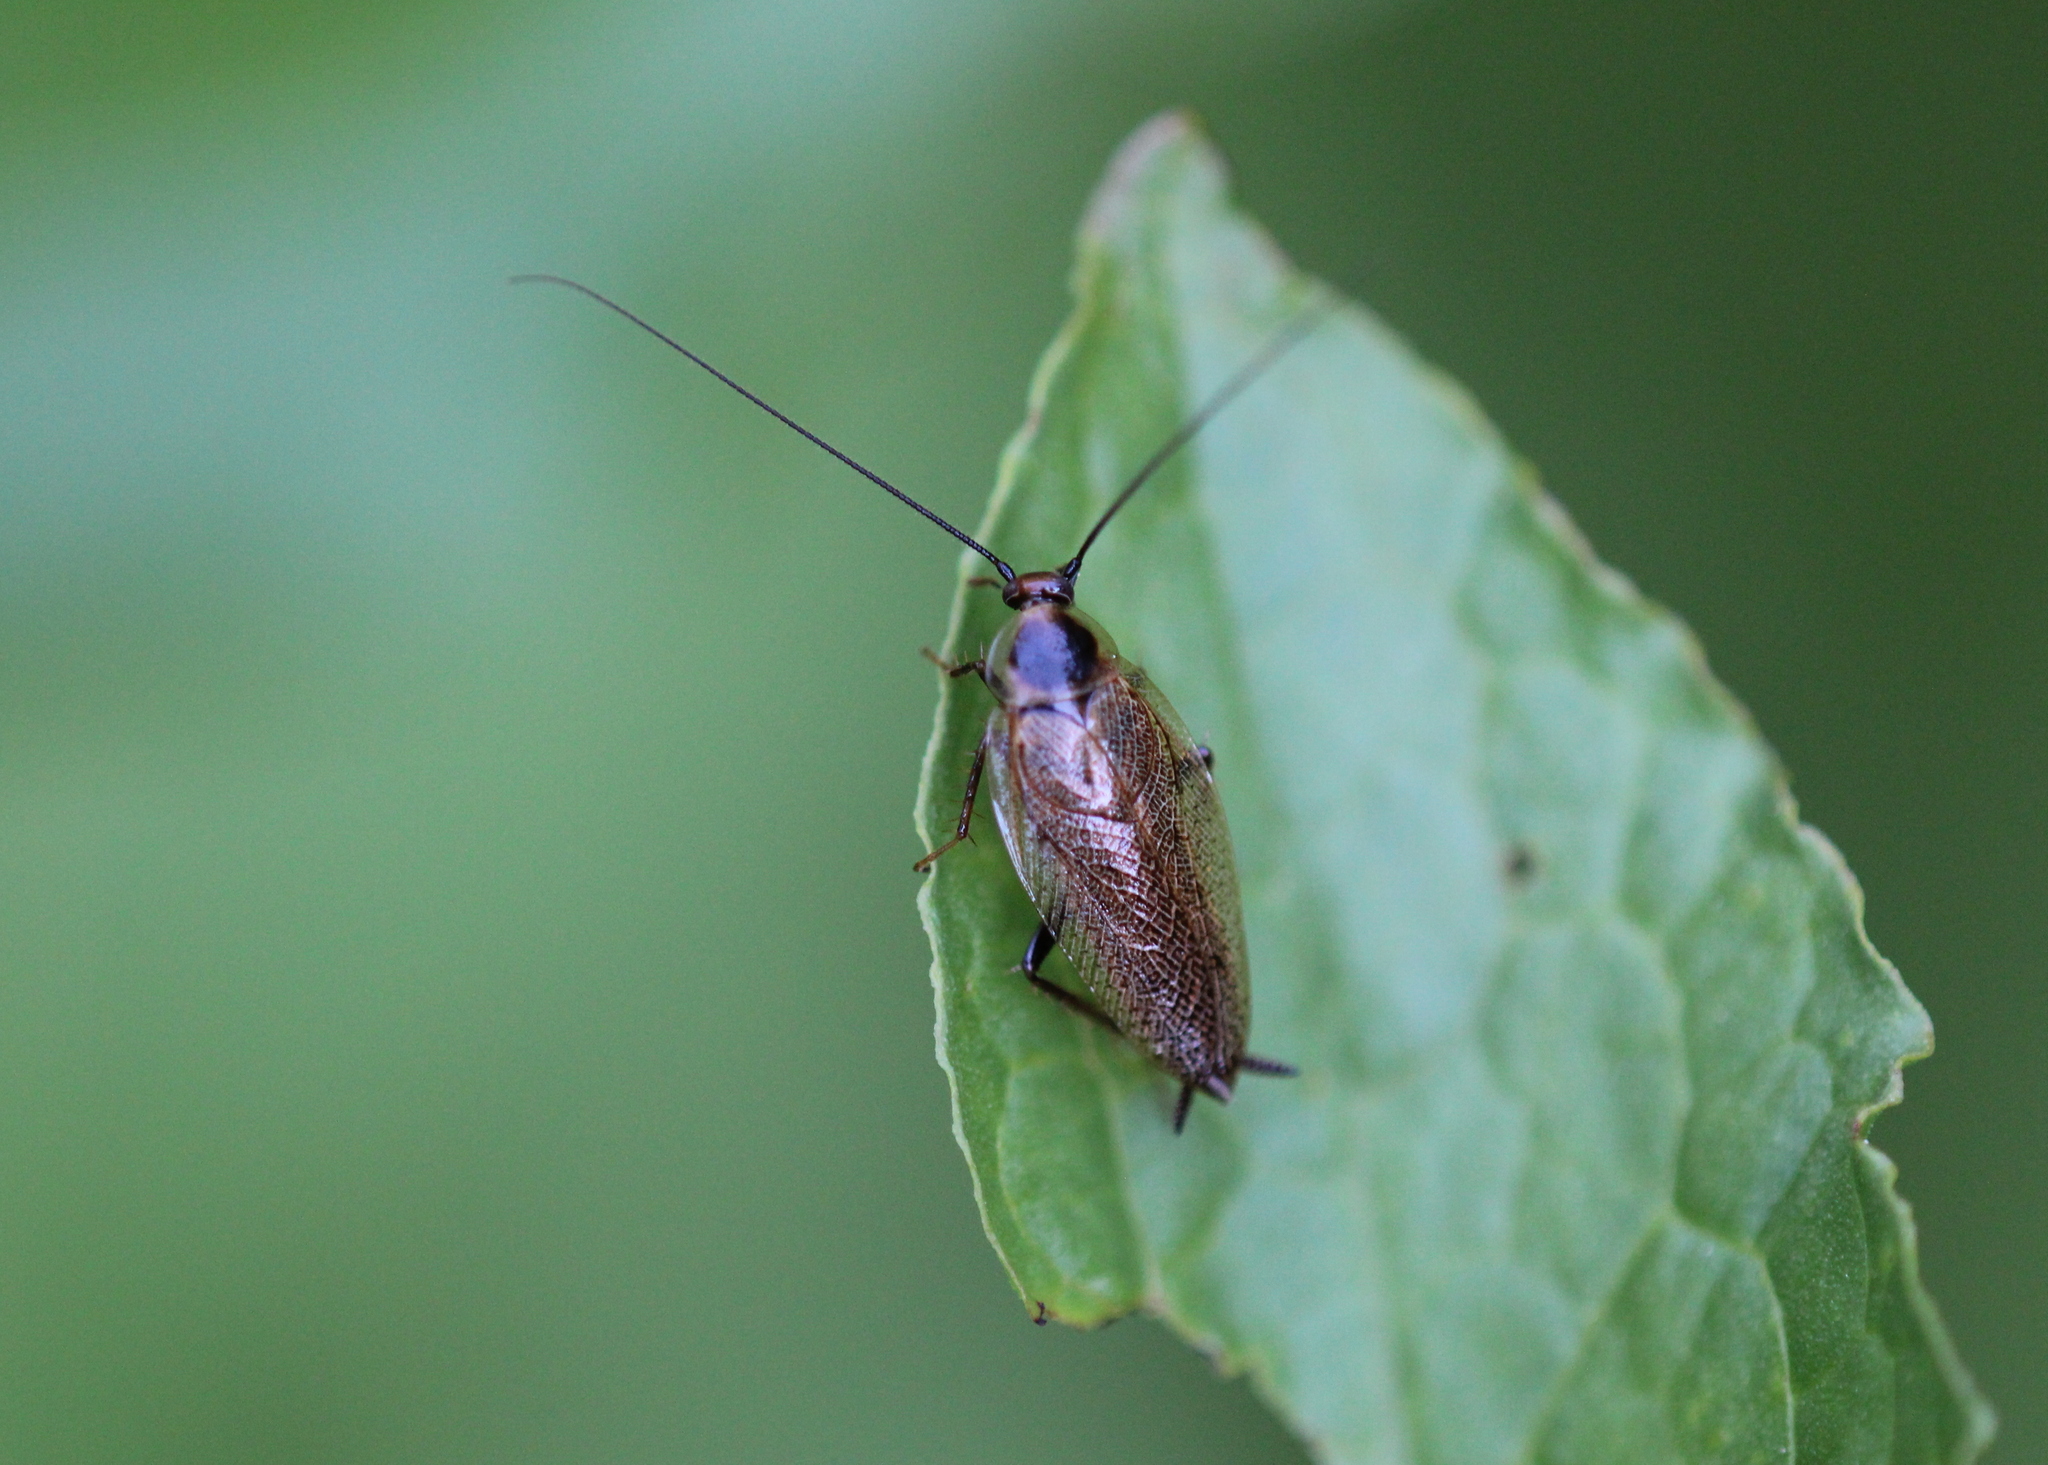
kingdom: Animalia
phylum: Arthropoda
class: Insecta
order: Blattodea
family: Ectobiidae
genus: Ectobius
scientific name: Ectobius lapponicus
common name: Dusky cockroach
